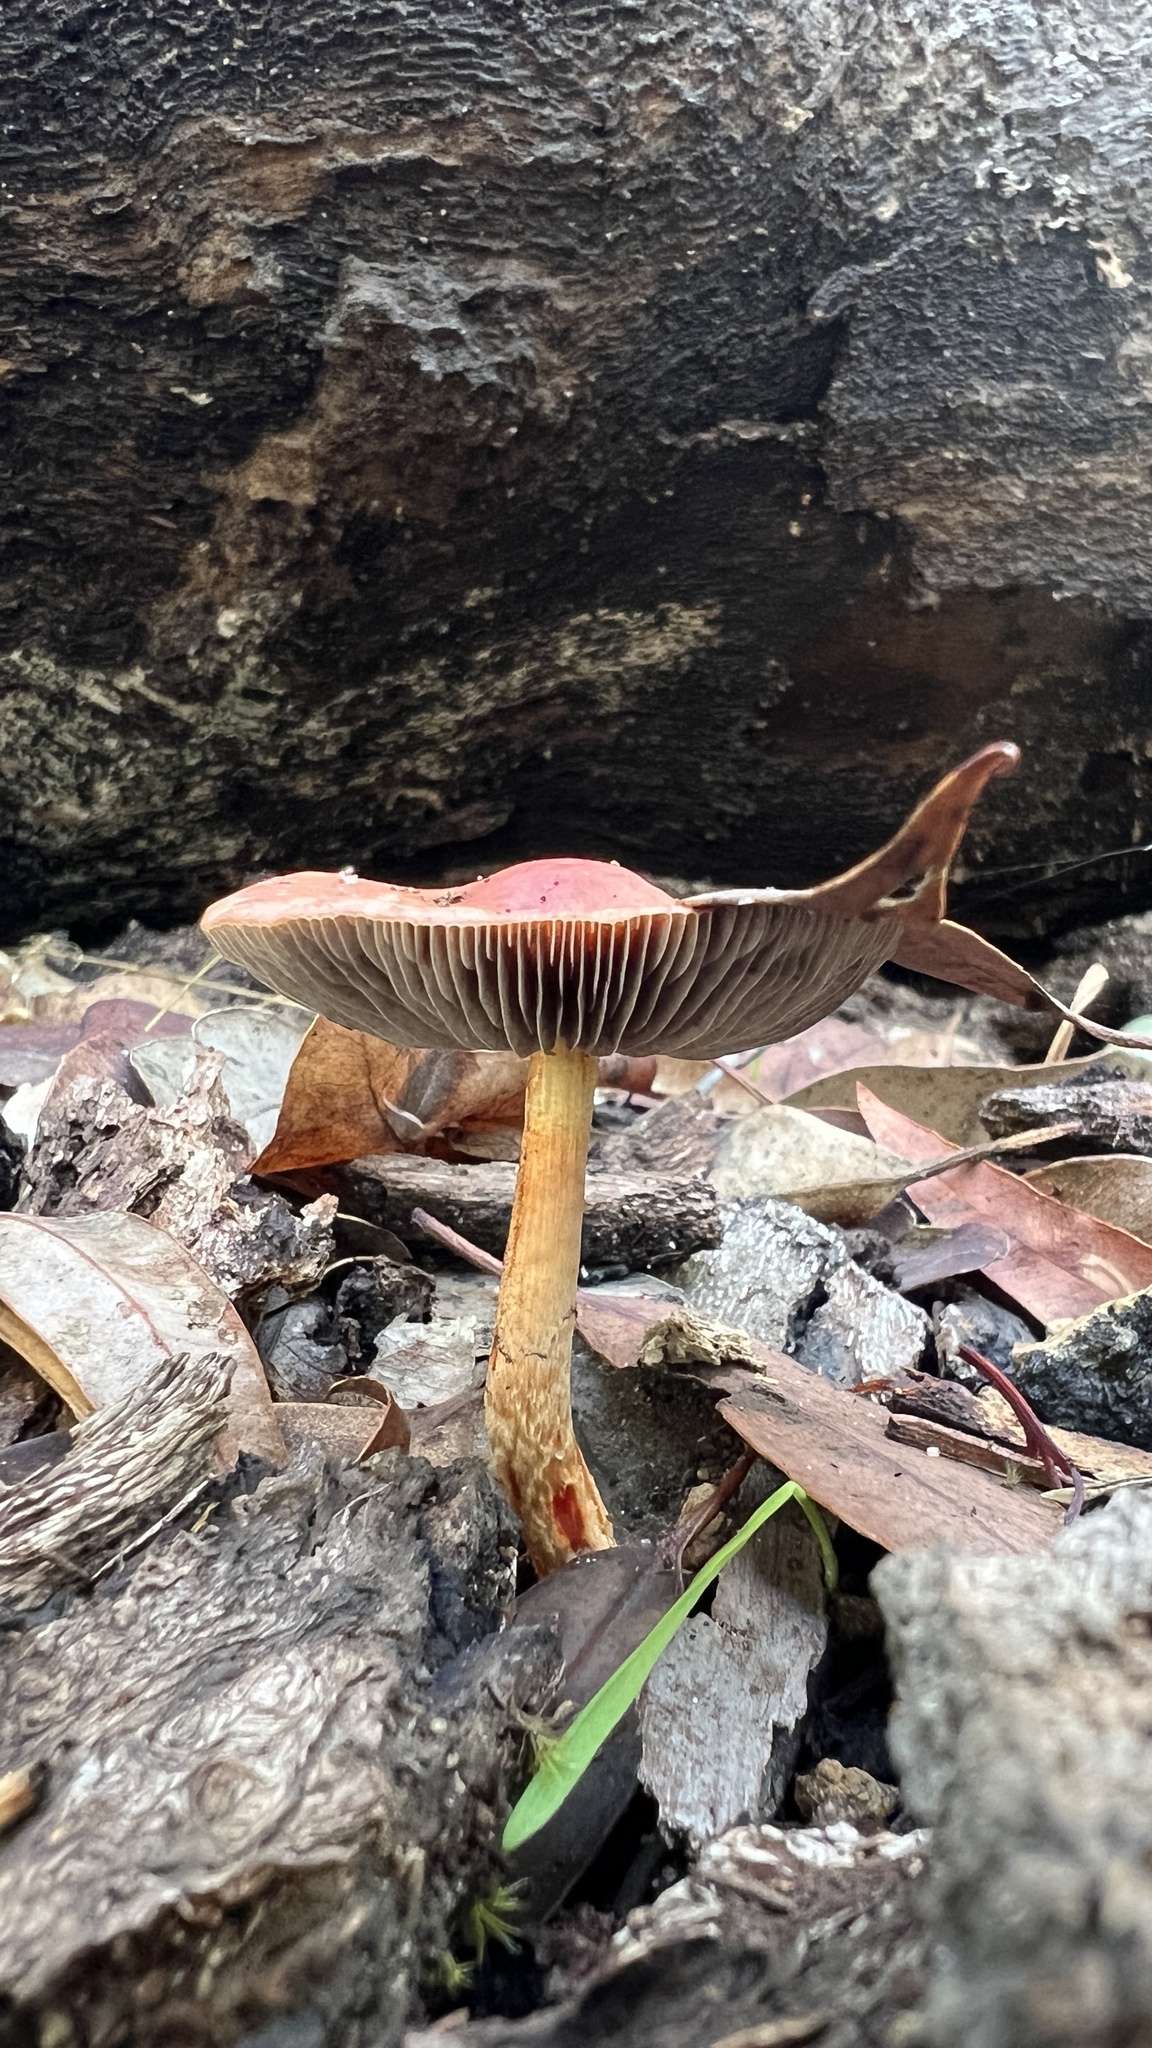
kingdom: Fungi
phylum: Basidiomycota
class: Agaricomycetes
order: Agaricales
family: Strophariaceae
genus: Leratiomyces
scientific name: Leratiomyces ceres
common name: Redlead roundhead
